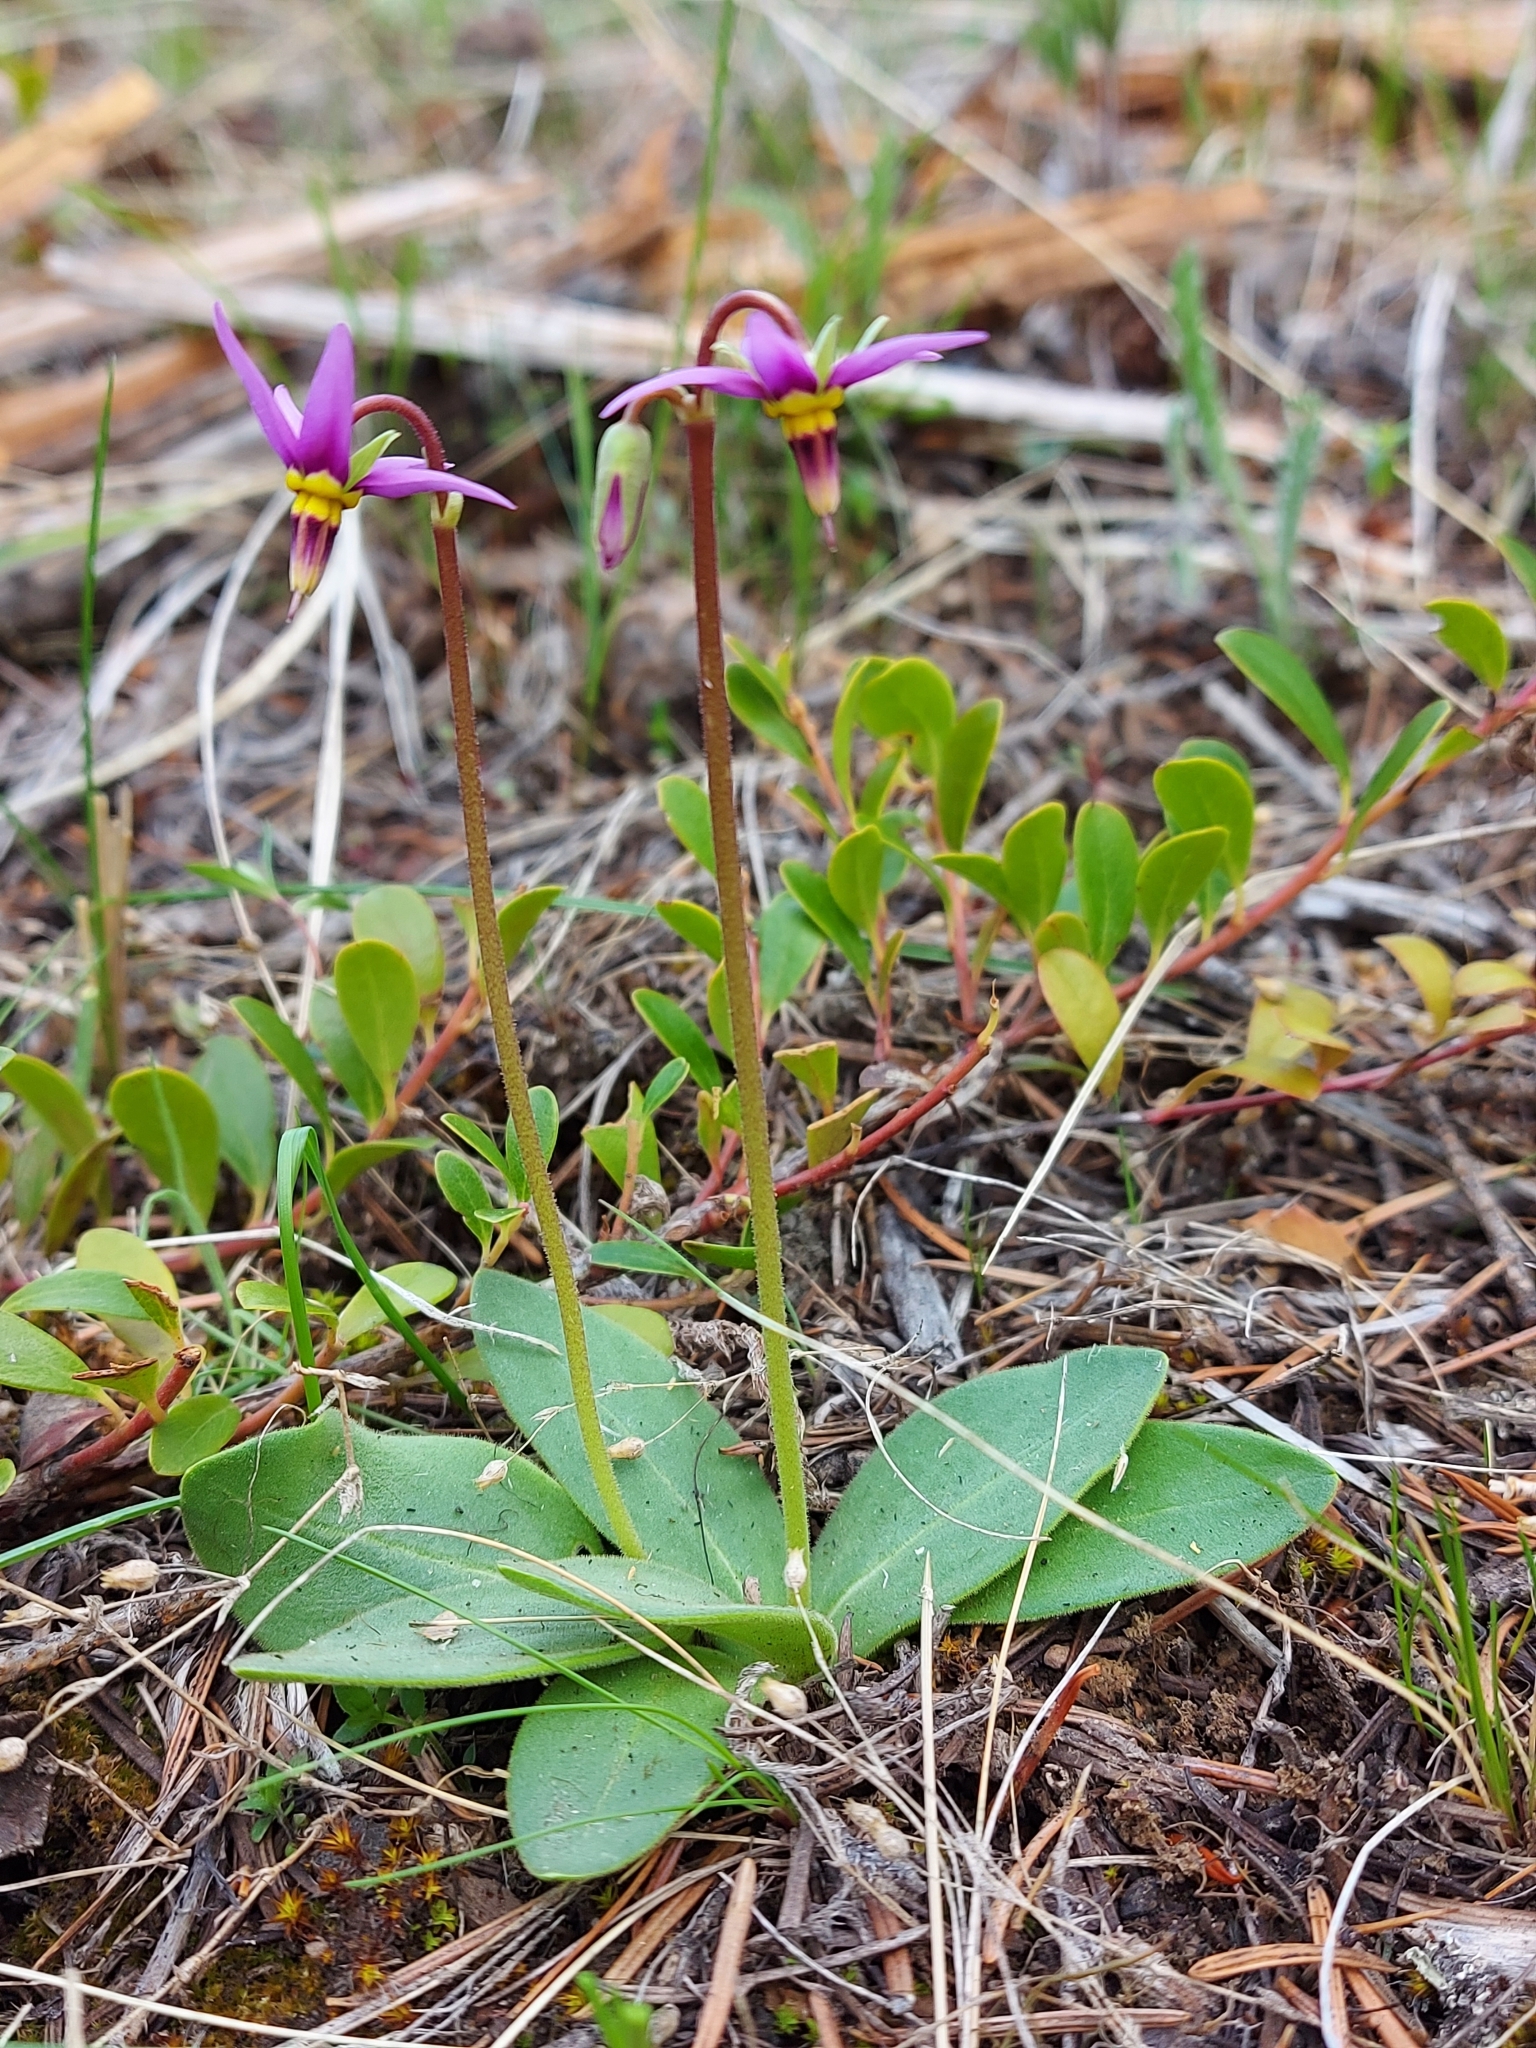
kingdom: Plantae
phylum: Tracheophyta
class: Magnoliopsida
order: Ericales
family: Primulaceae
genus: Dodecatheon
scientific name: Dodecatheon pulchellum
